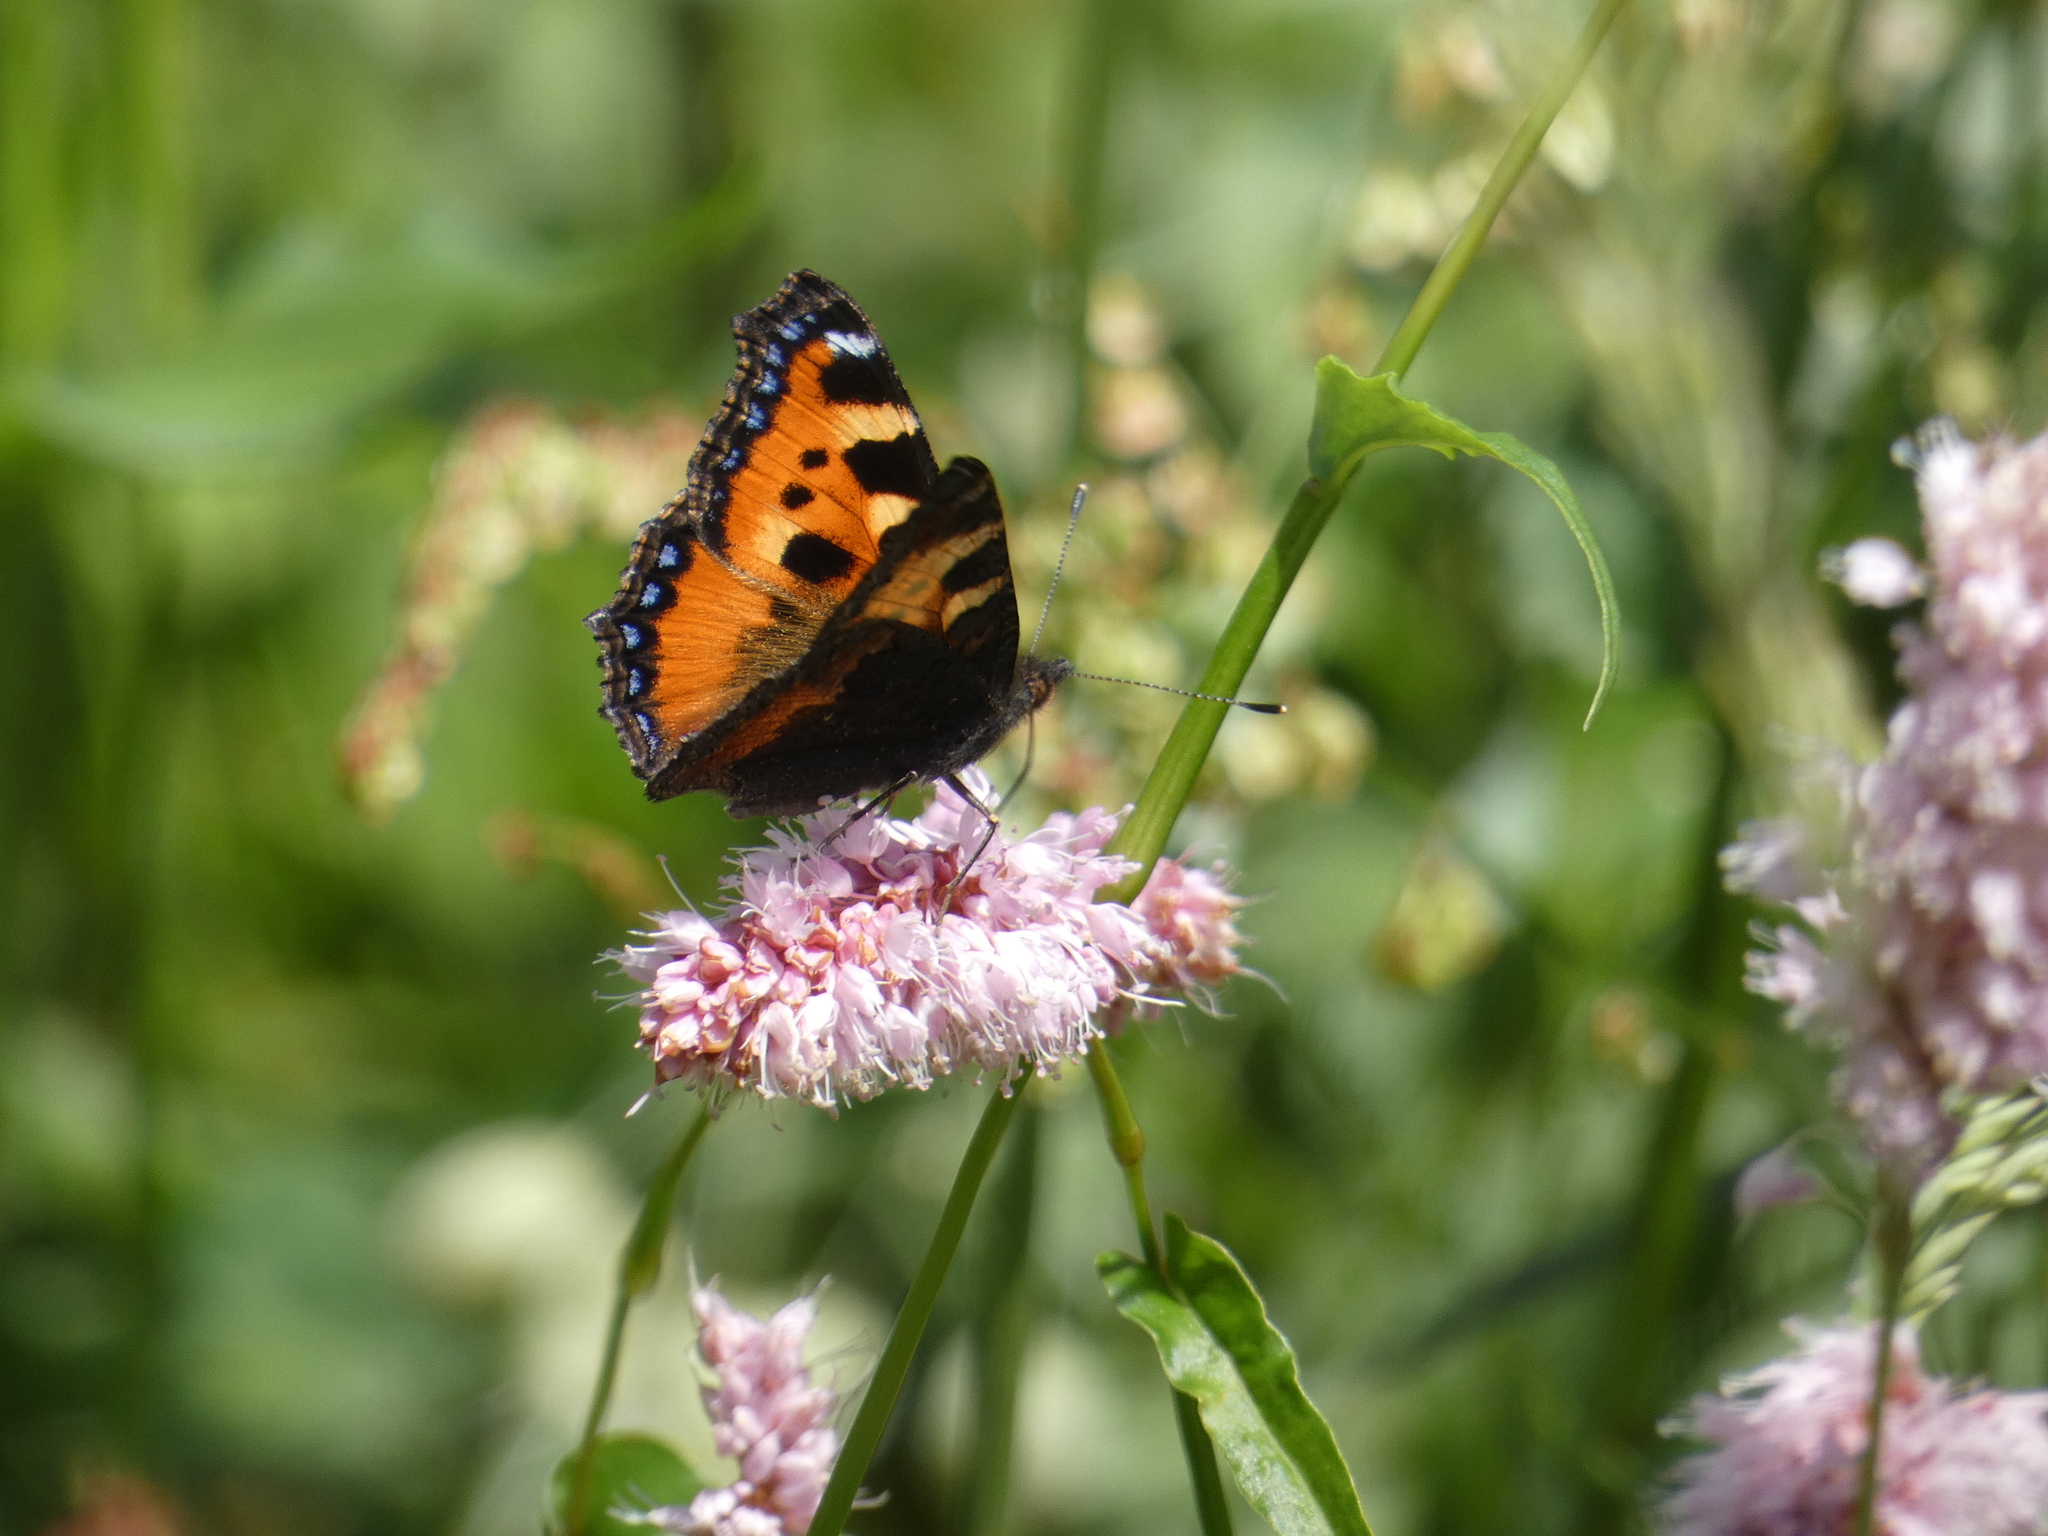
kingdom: Animalia
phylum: Arthropoda
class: Insecta
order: Lepidoptera
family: Nymphalidae
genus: Aglais
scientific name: Aglais urticae
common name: Small tortoiseshell
